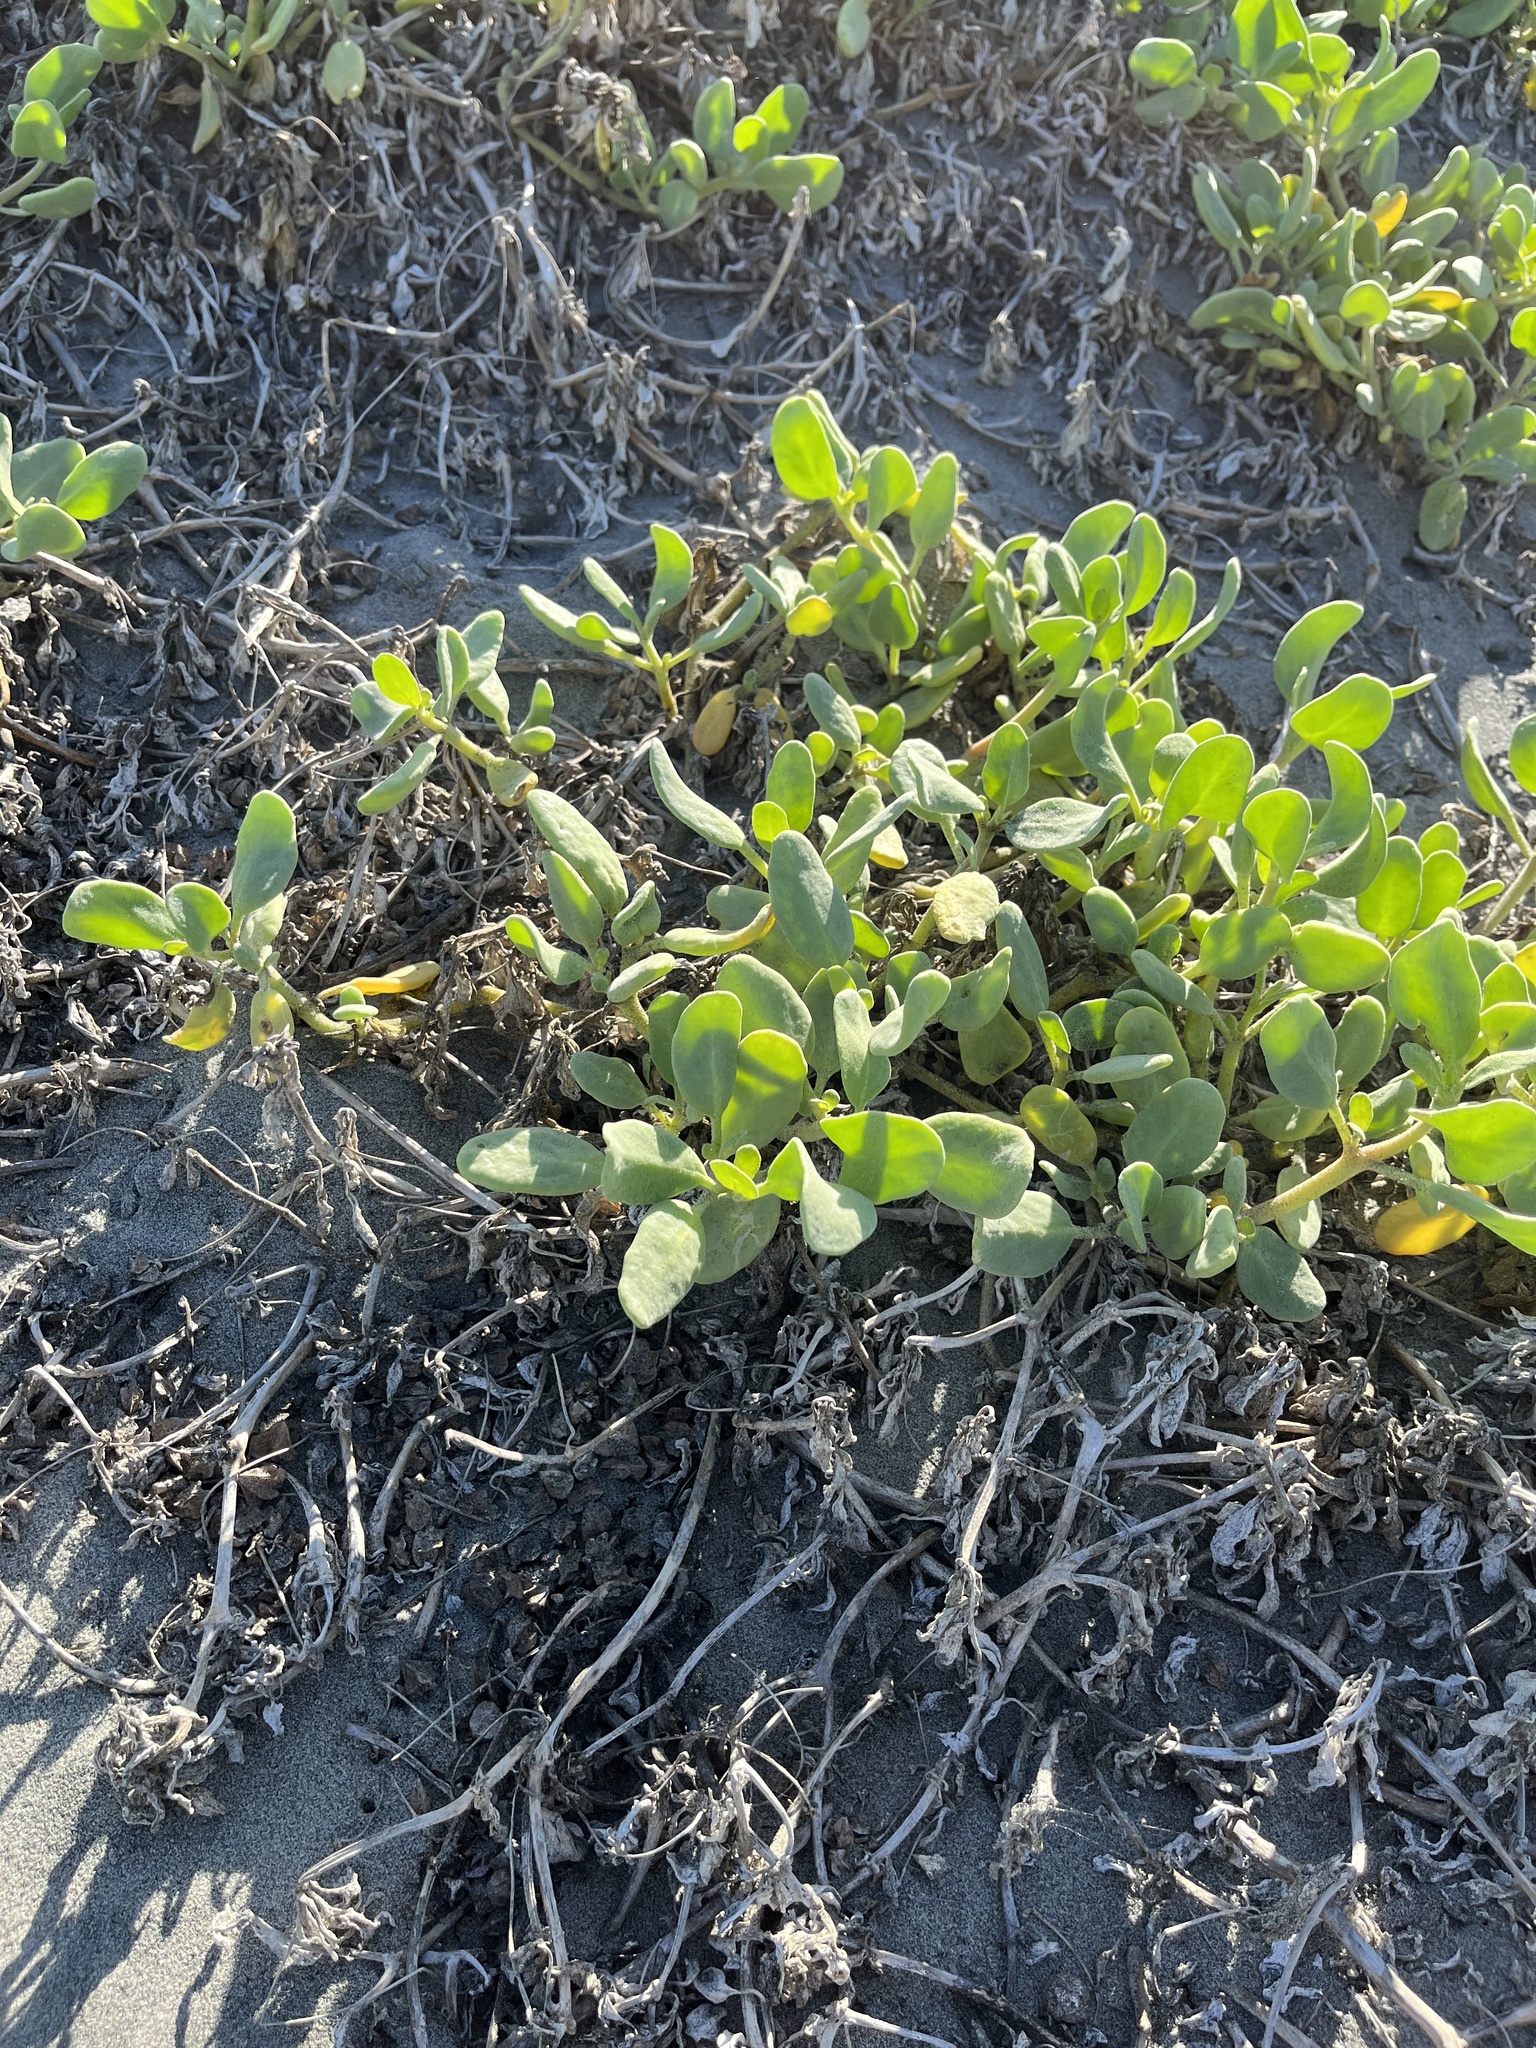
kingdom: Plantae
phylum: Tracheophyta
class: Magnoliopsida
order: Caryophyllales
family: Nyctaginaceae
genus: Abronia
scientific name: Abronia maritima
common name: Red sand-verbena
